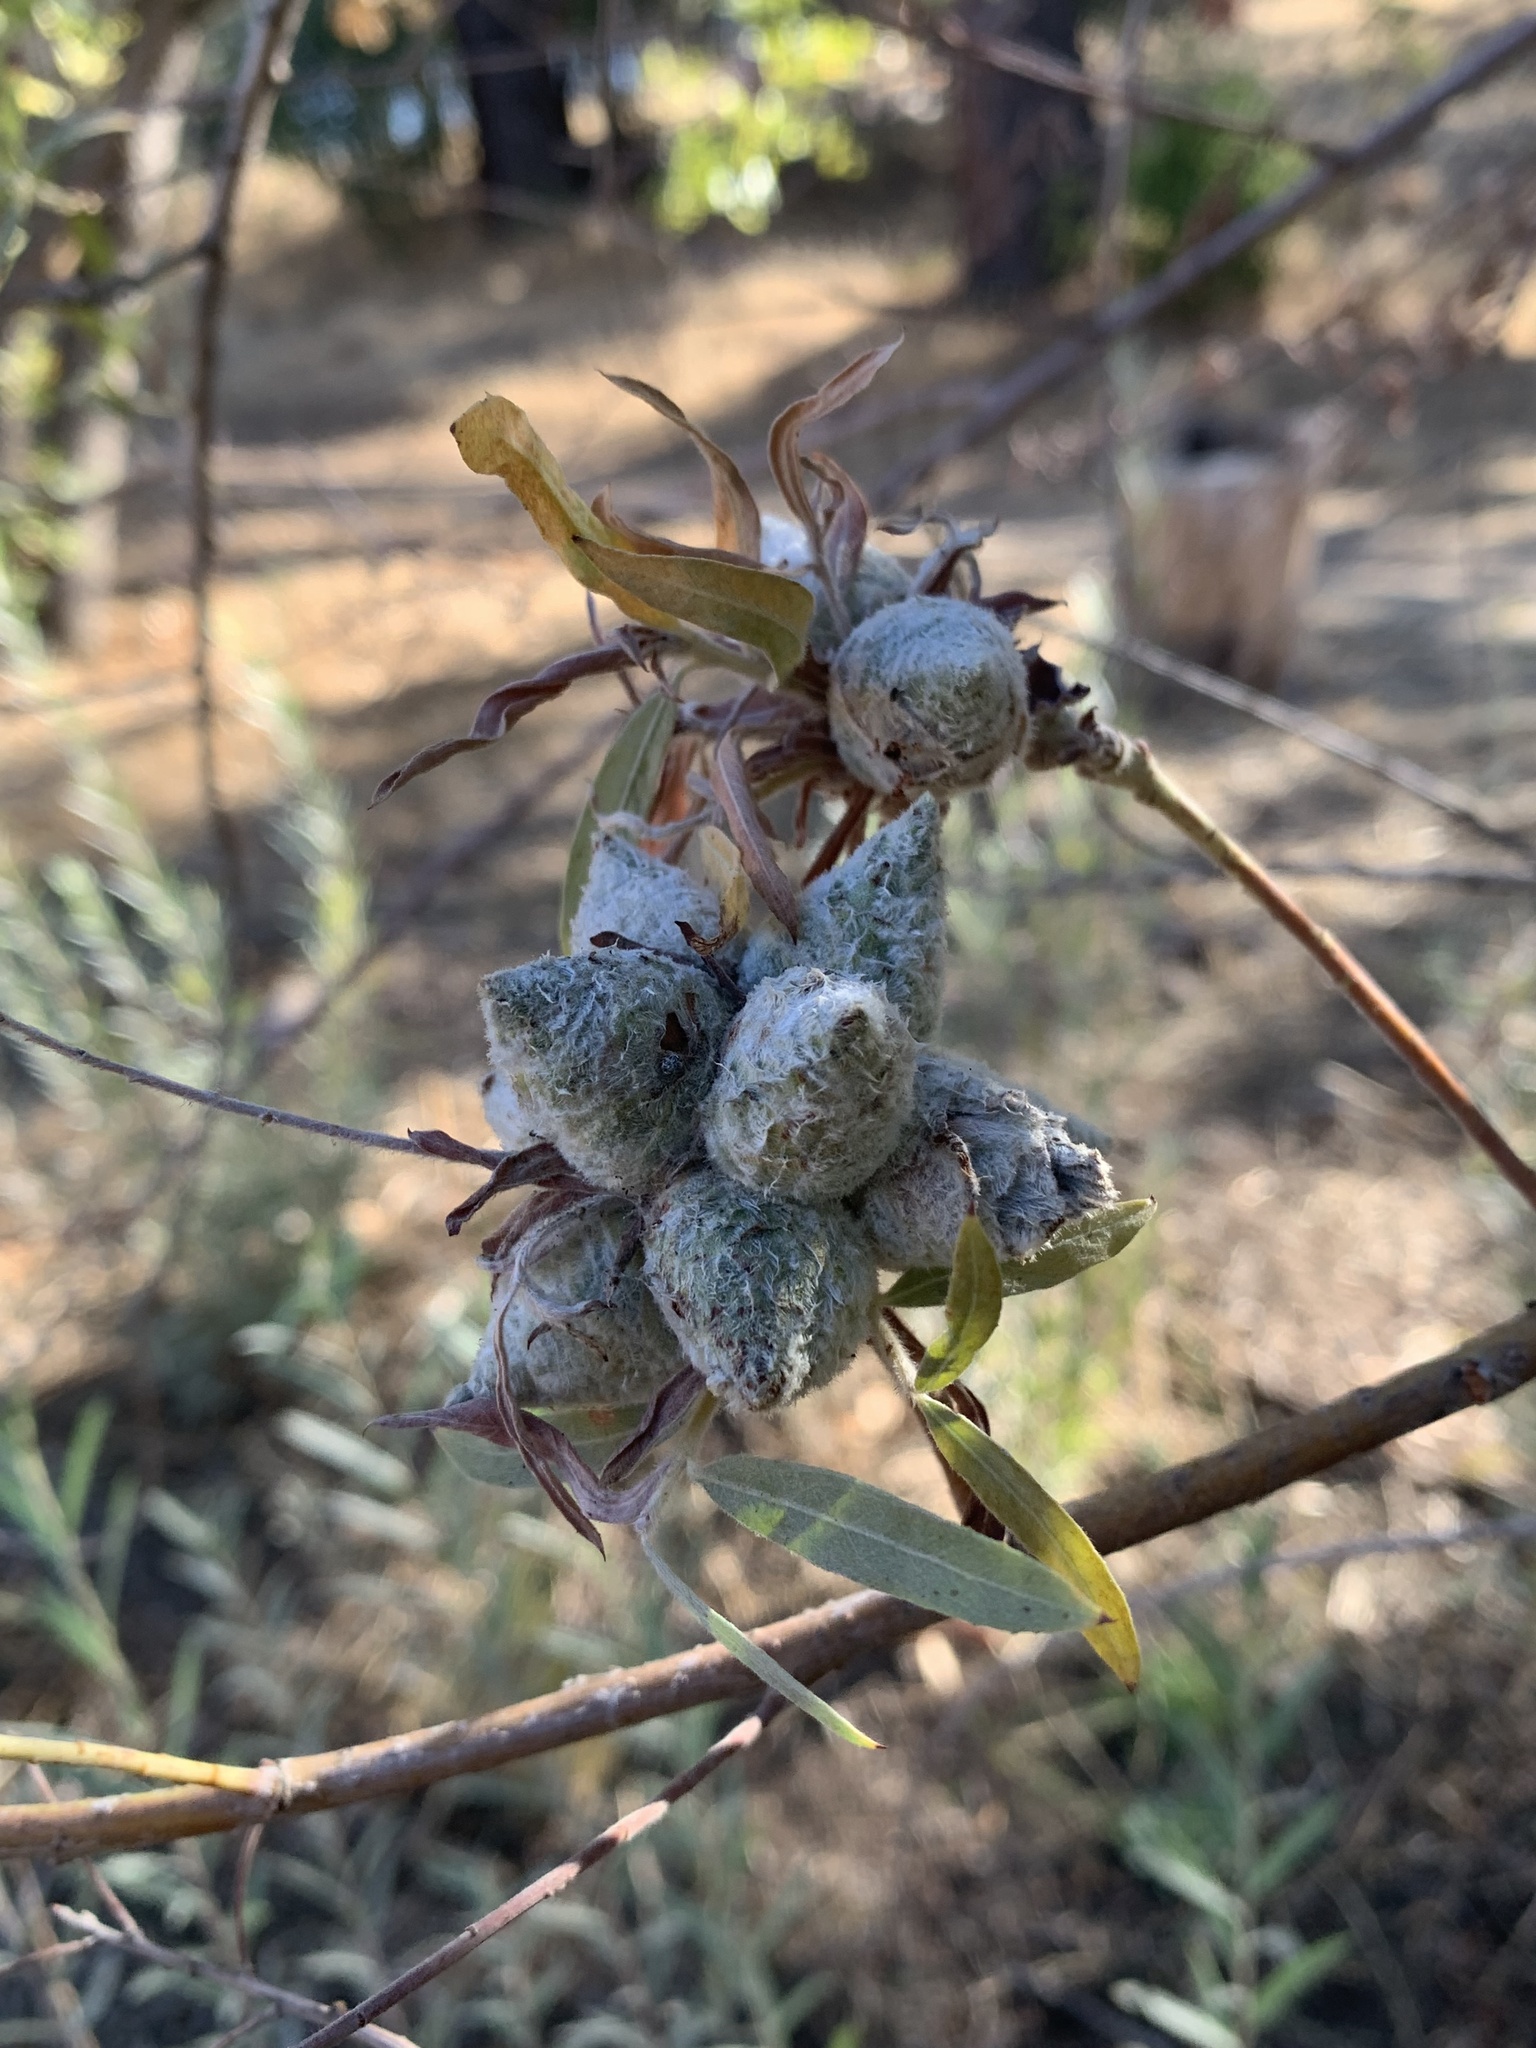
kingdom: Animalia
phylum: Arthropoda
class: Insecta
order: Diptera
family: Cecidomyiidae
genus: Rabdophaga
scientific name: Rabdophaga strobiloides
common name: Willow pinecone gall midge
